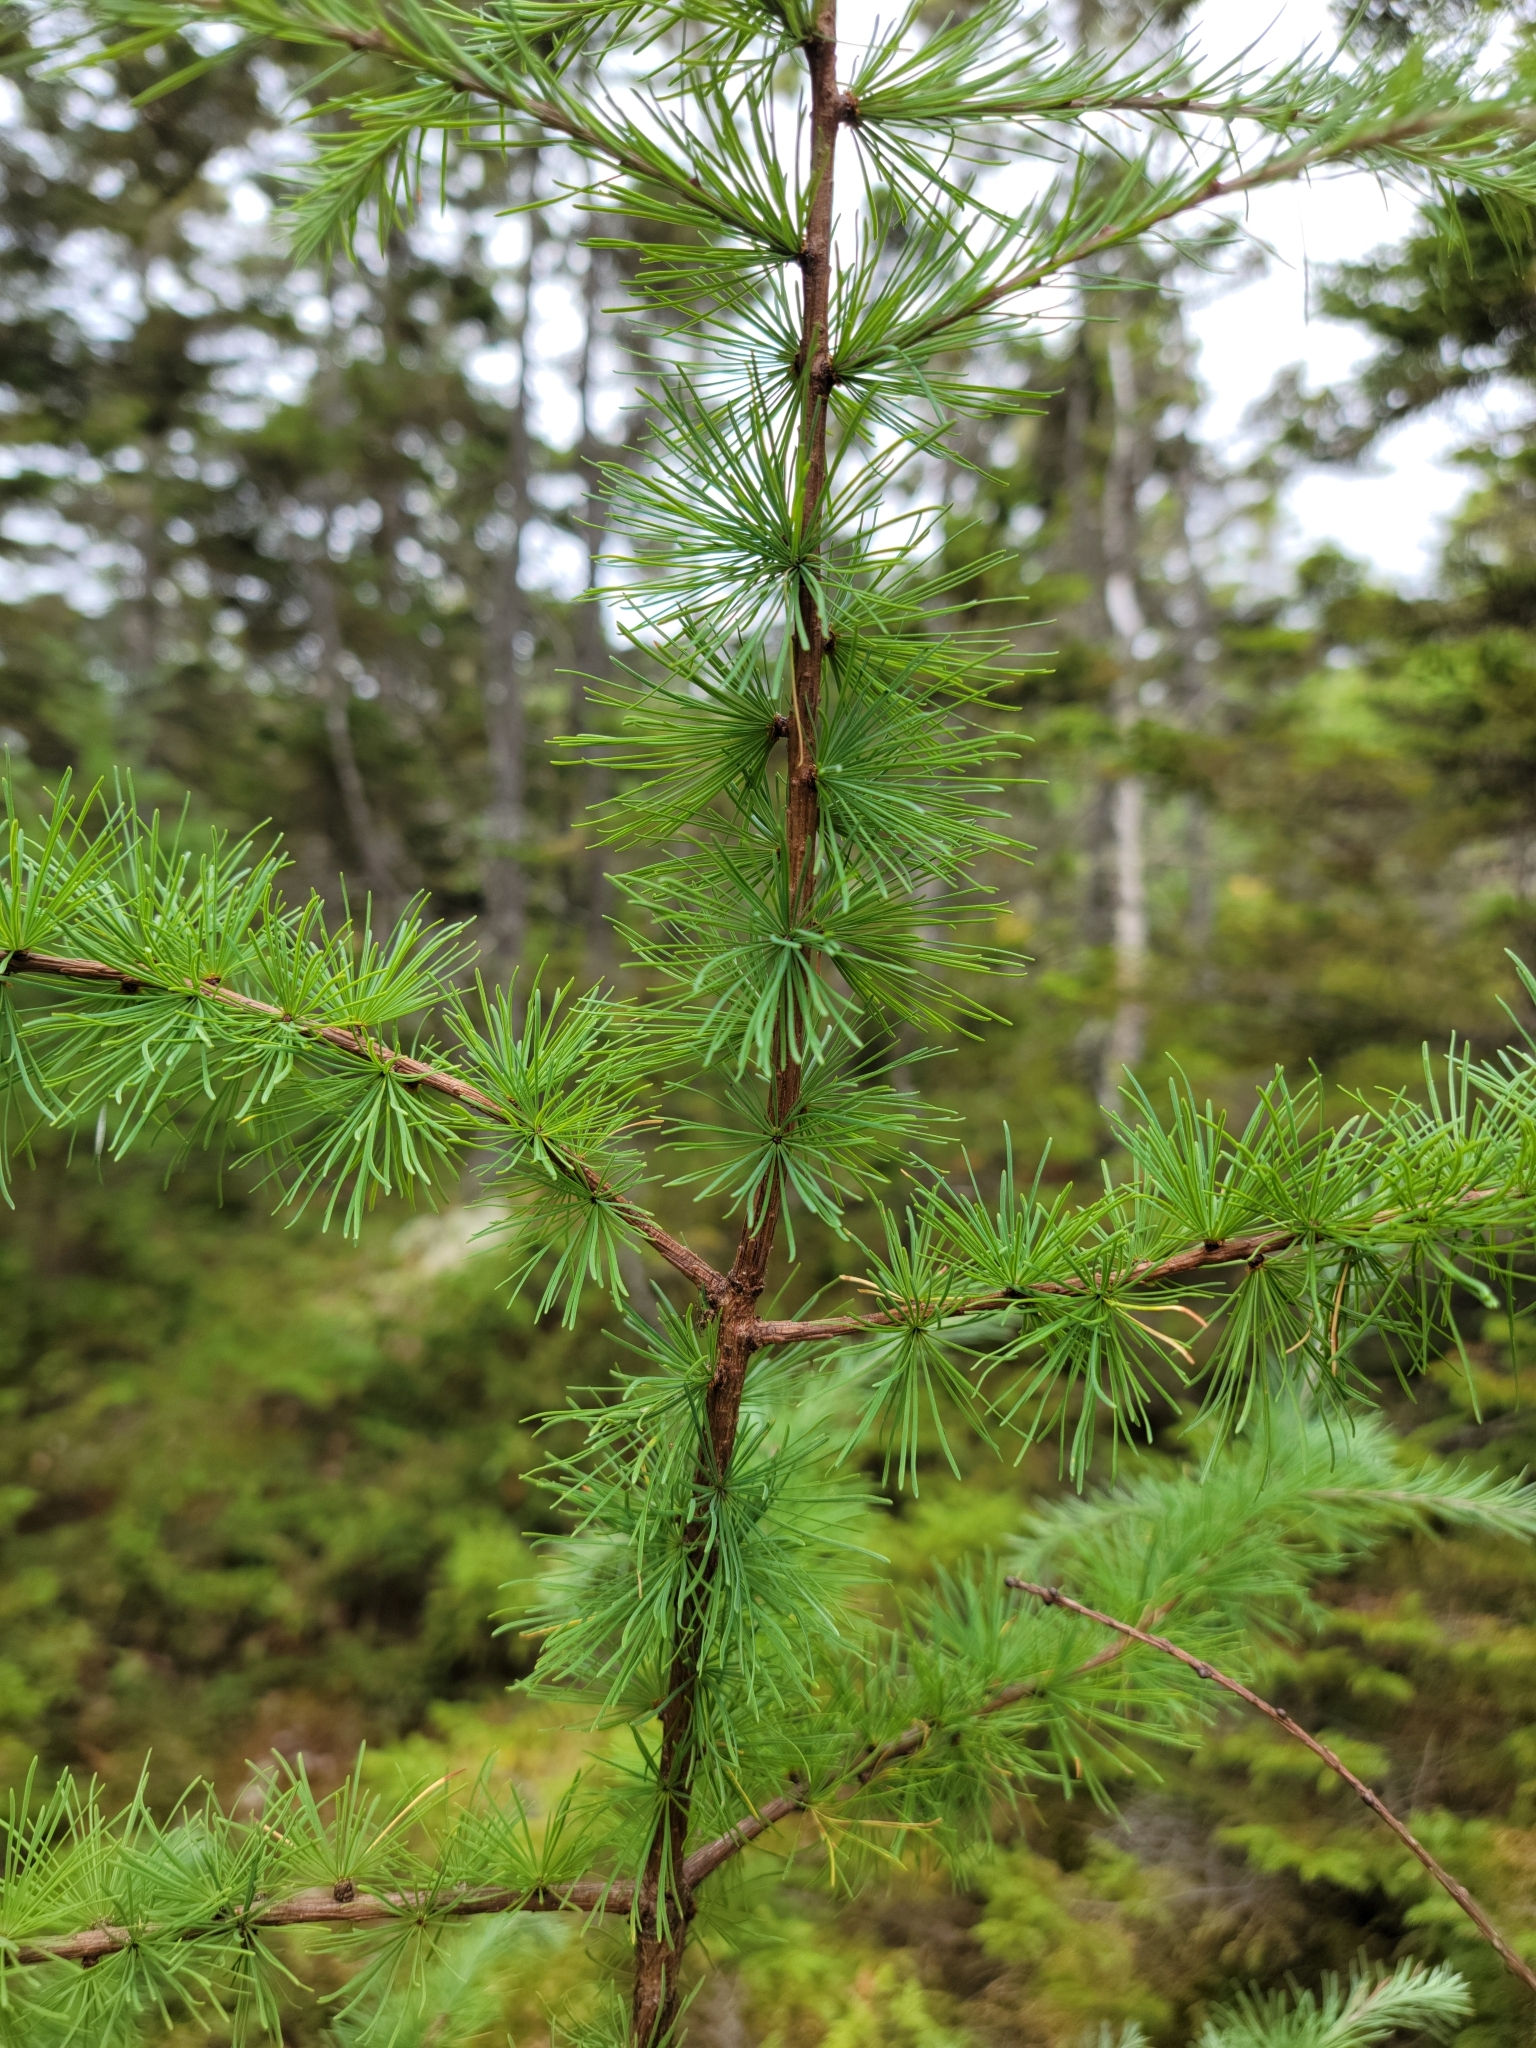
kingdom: Plantae
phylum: Tracheophyta
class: Pinopsida
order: Pinales
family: Pinaceae
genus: Larix
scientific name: Larix laricina
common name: American larch
